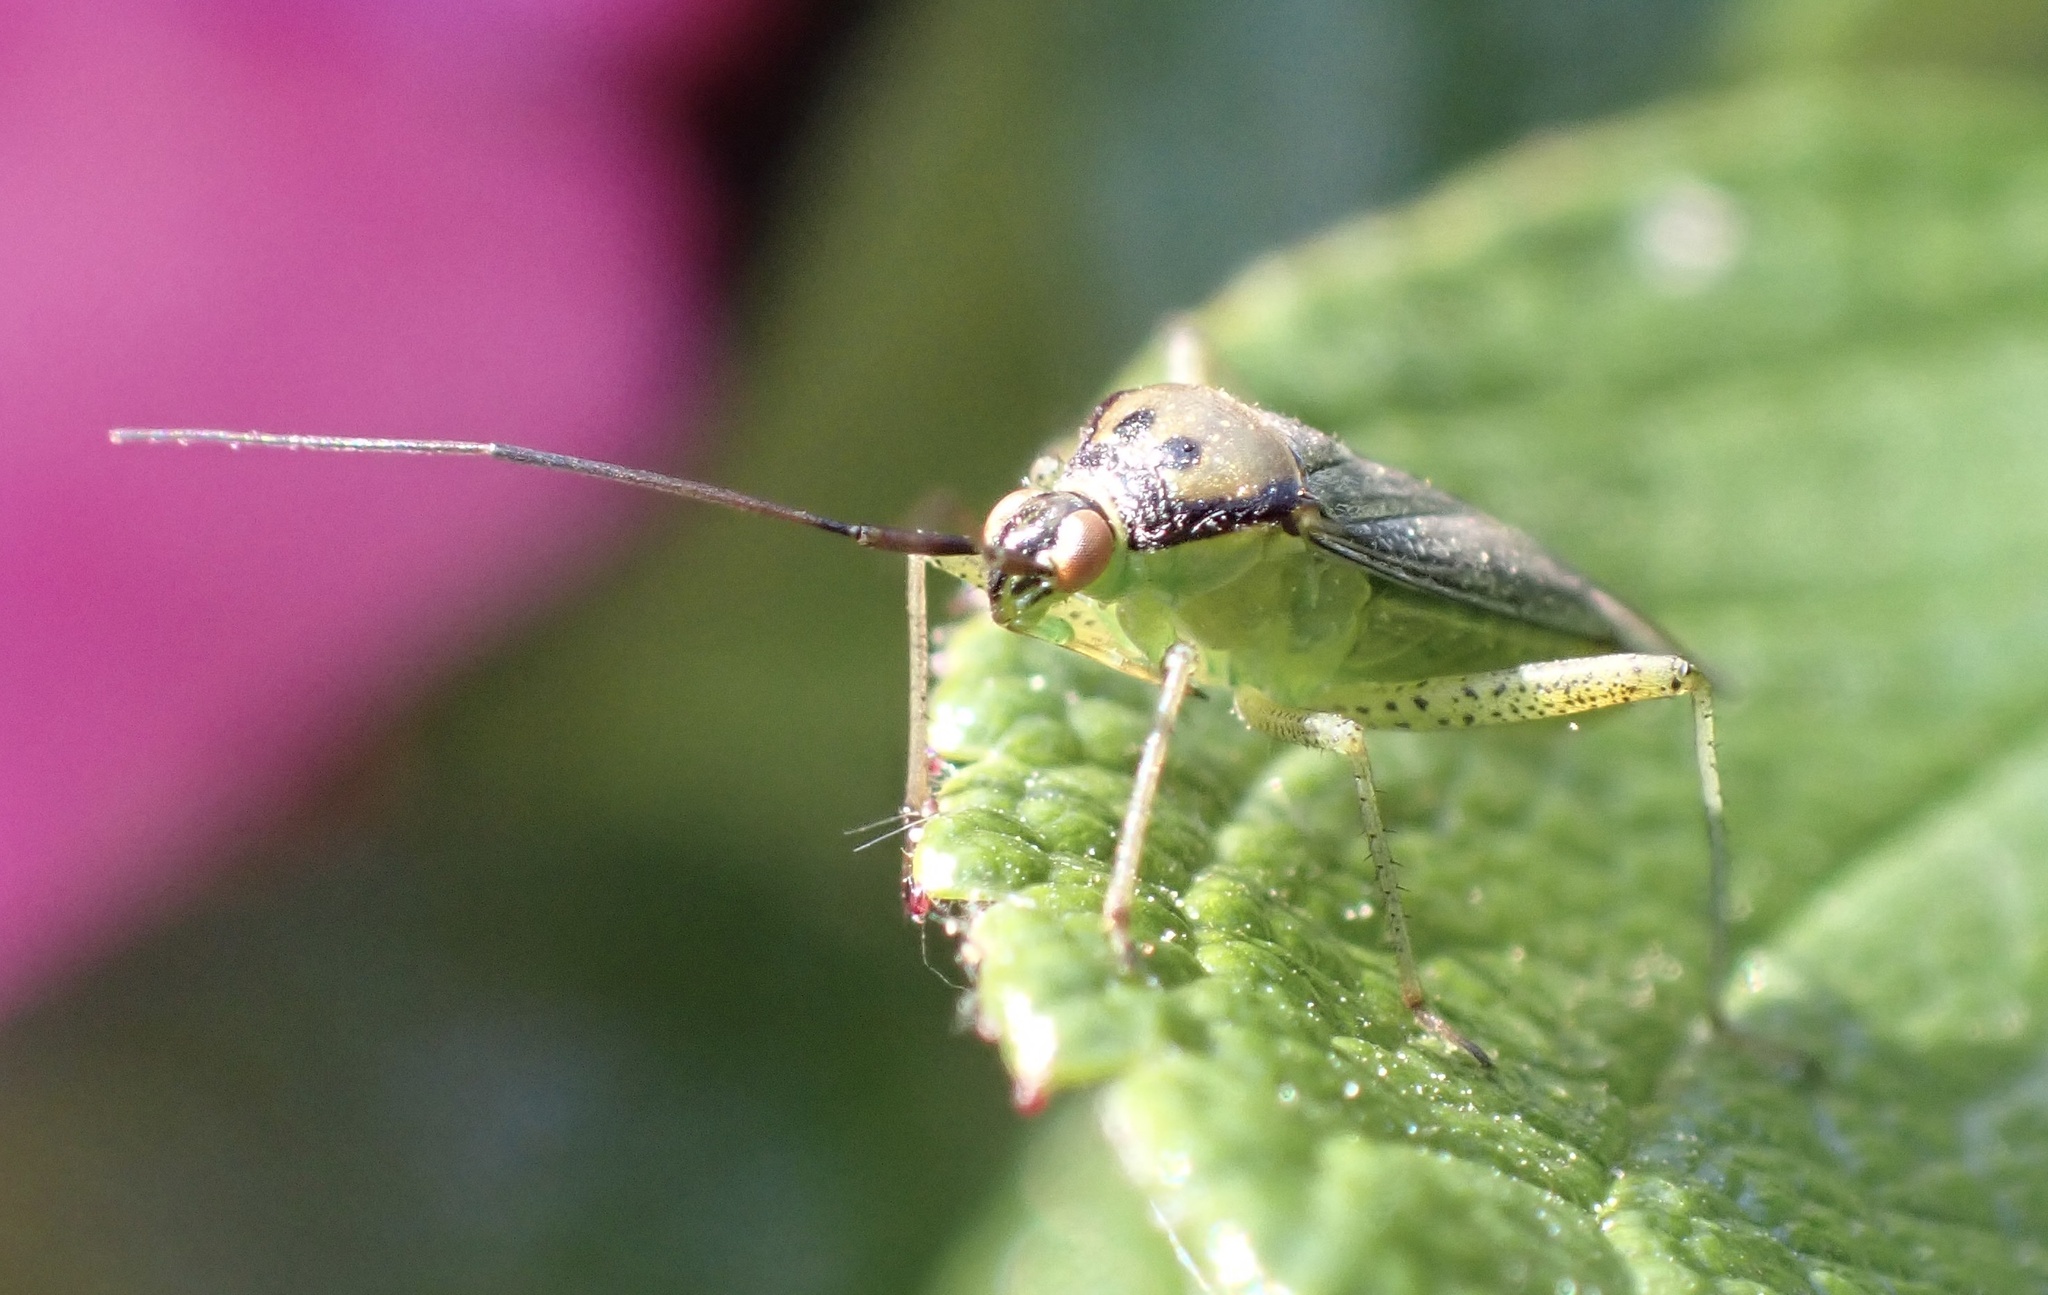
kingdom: Animalia
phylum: Arthropoda
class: Insecta
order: Hemiptera
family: Miridae
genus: Closterotomus
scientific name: Closterotomus trivialis
